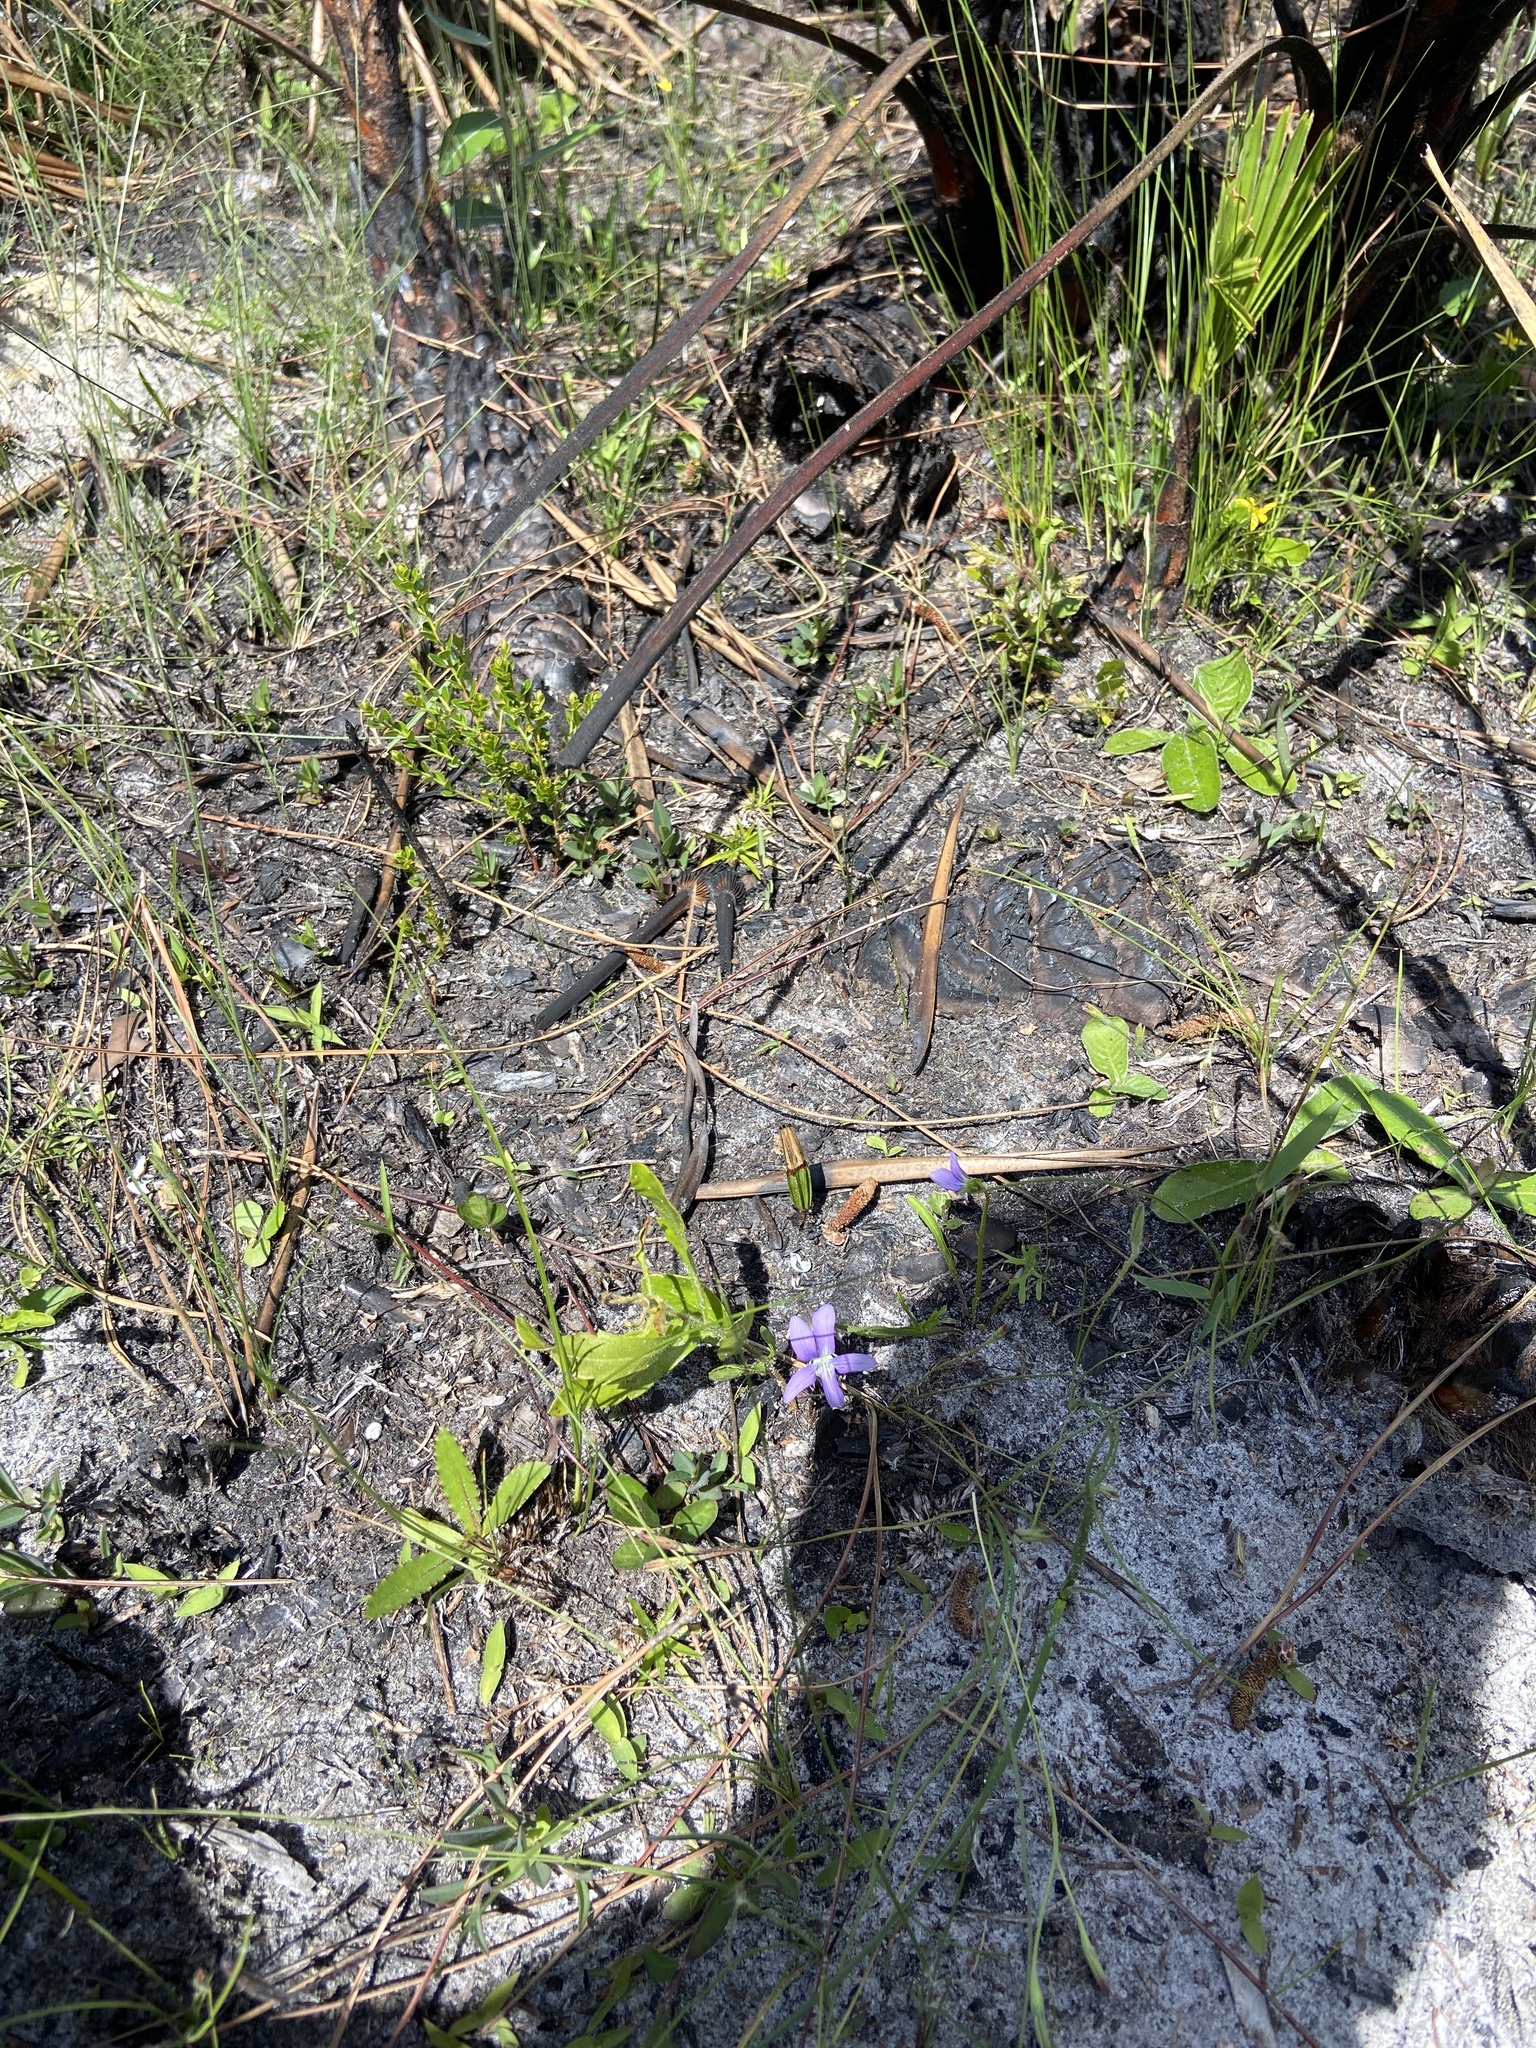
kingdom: Plantae
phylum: Tracheophyta
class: Magnoliopsida
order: Malpighiales
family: Violaceae
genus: Viola
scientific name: Viola septemloba
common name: Southern coast violet
